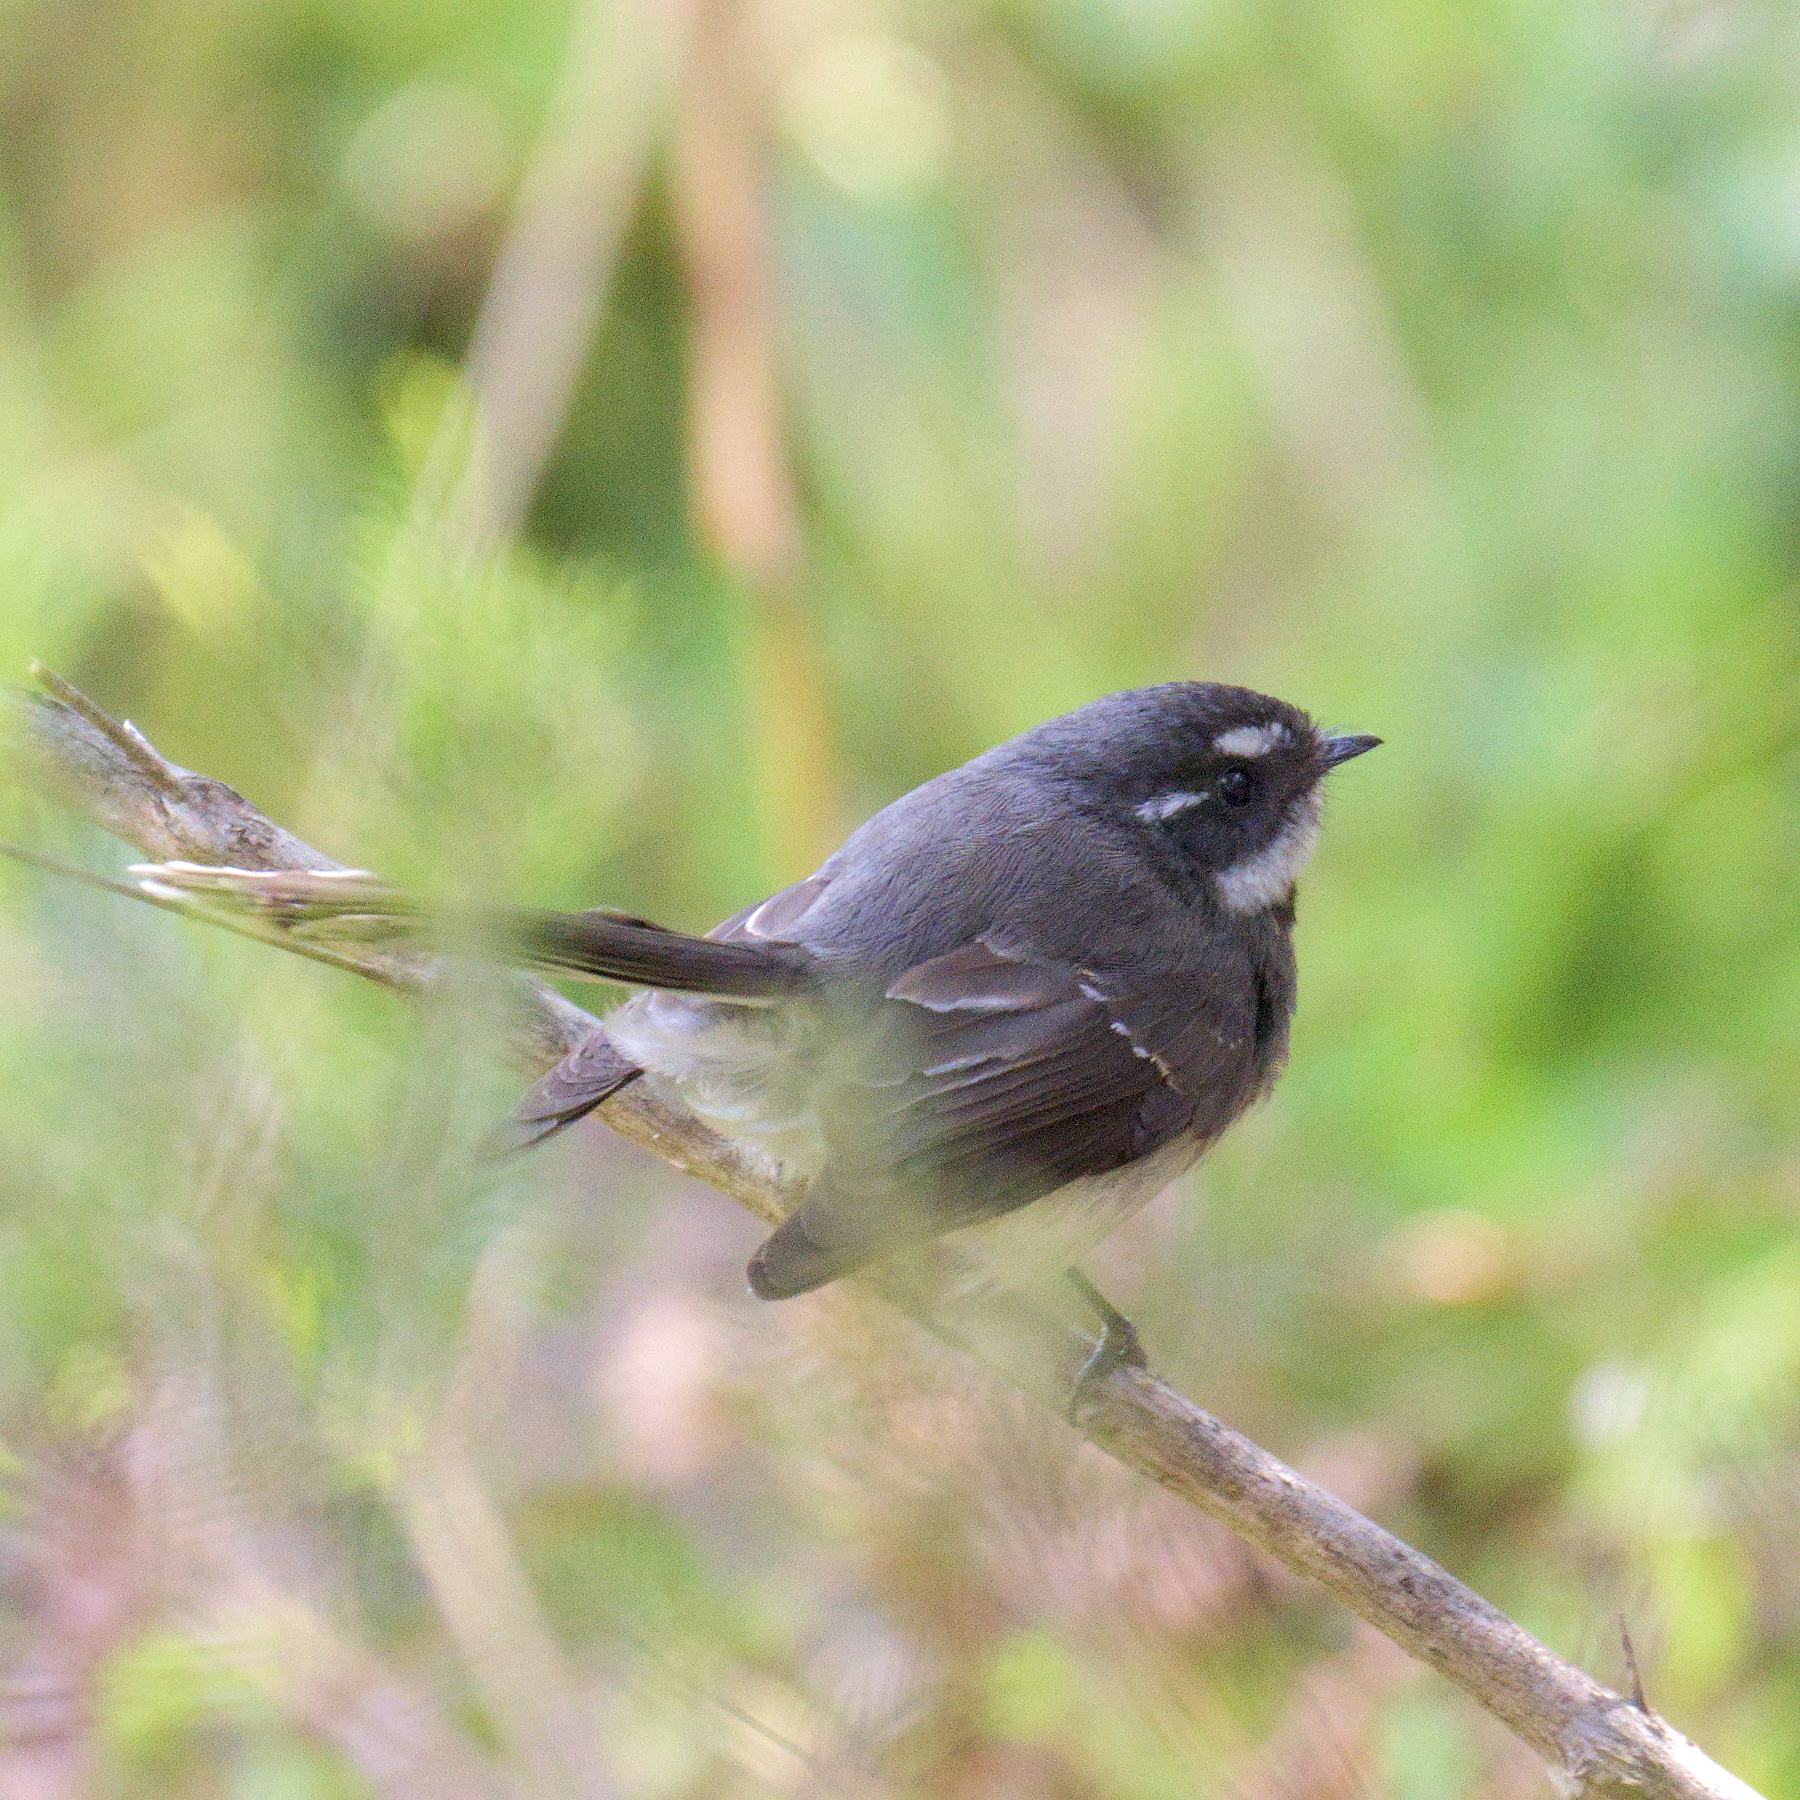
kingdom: Animalia
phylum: Chordata
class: Aves
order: Passeriformes
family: Rhipiduridae
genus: Rhipidura
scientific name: Rhipidura albiscapa
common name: Grey fantail
